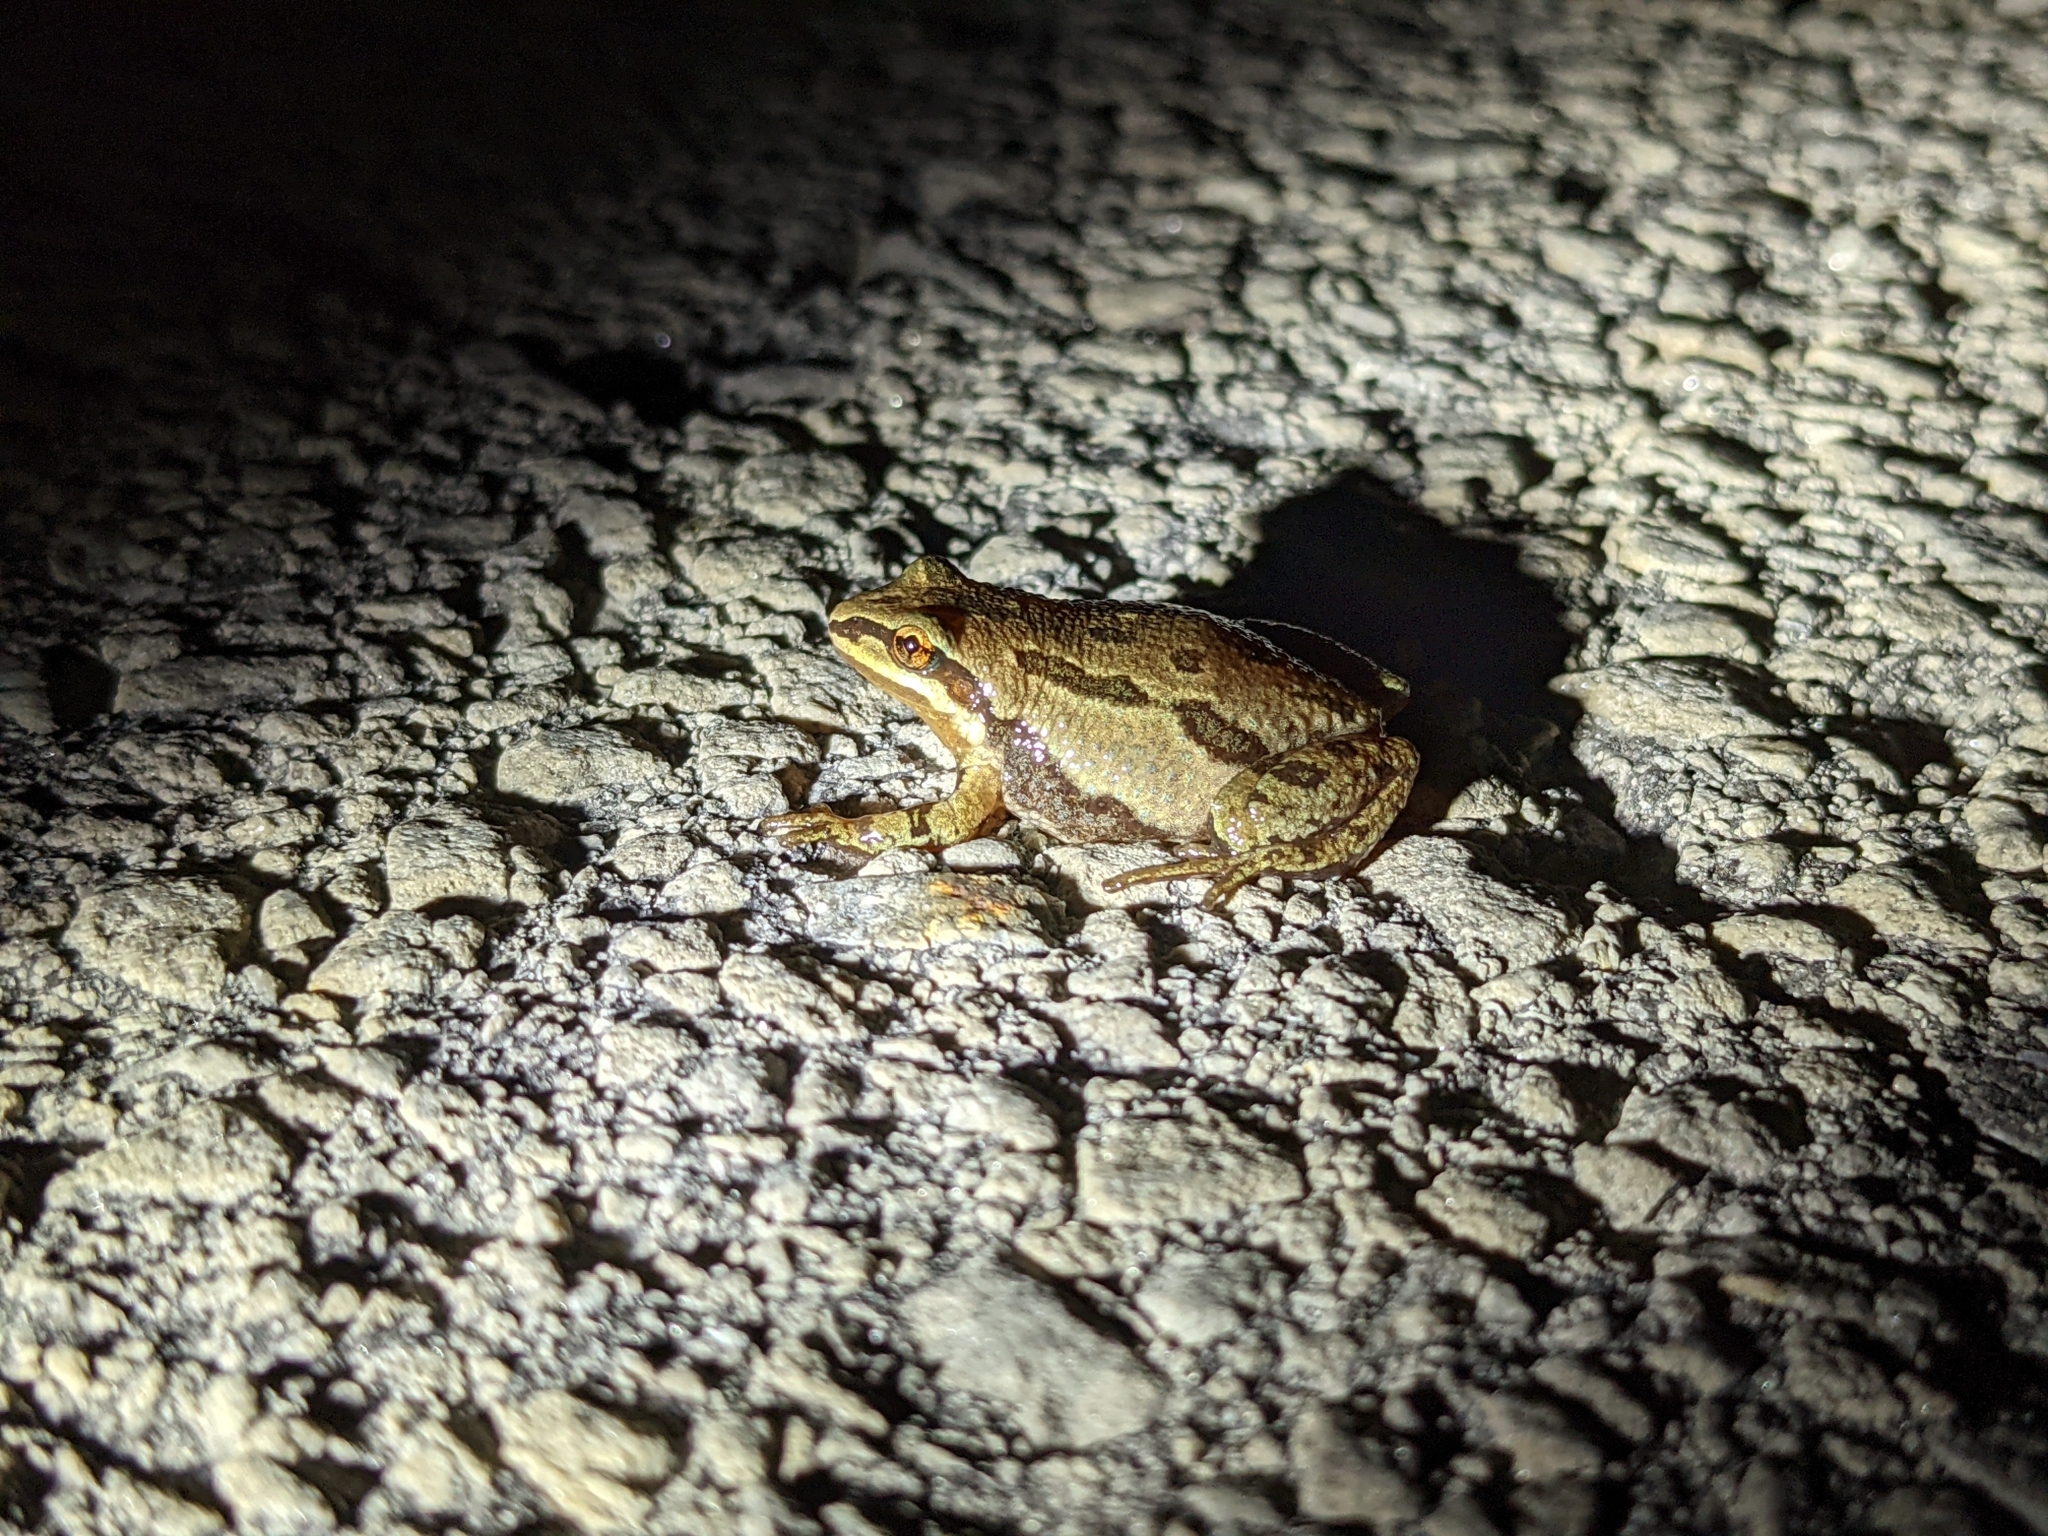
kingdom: Animalia
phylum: Chordata
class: Amphibia
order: Anura
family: Hylidae
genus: Pseudacris
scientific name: Pseudacris triseriata
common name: Western chorus frog
